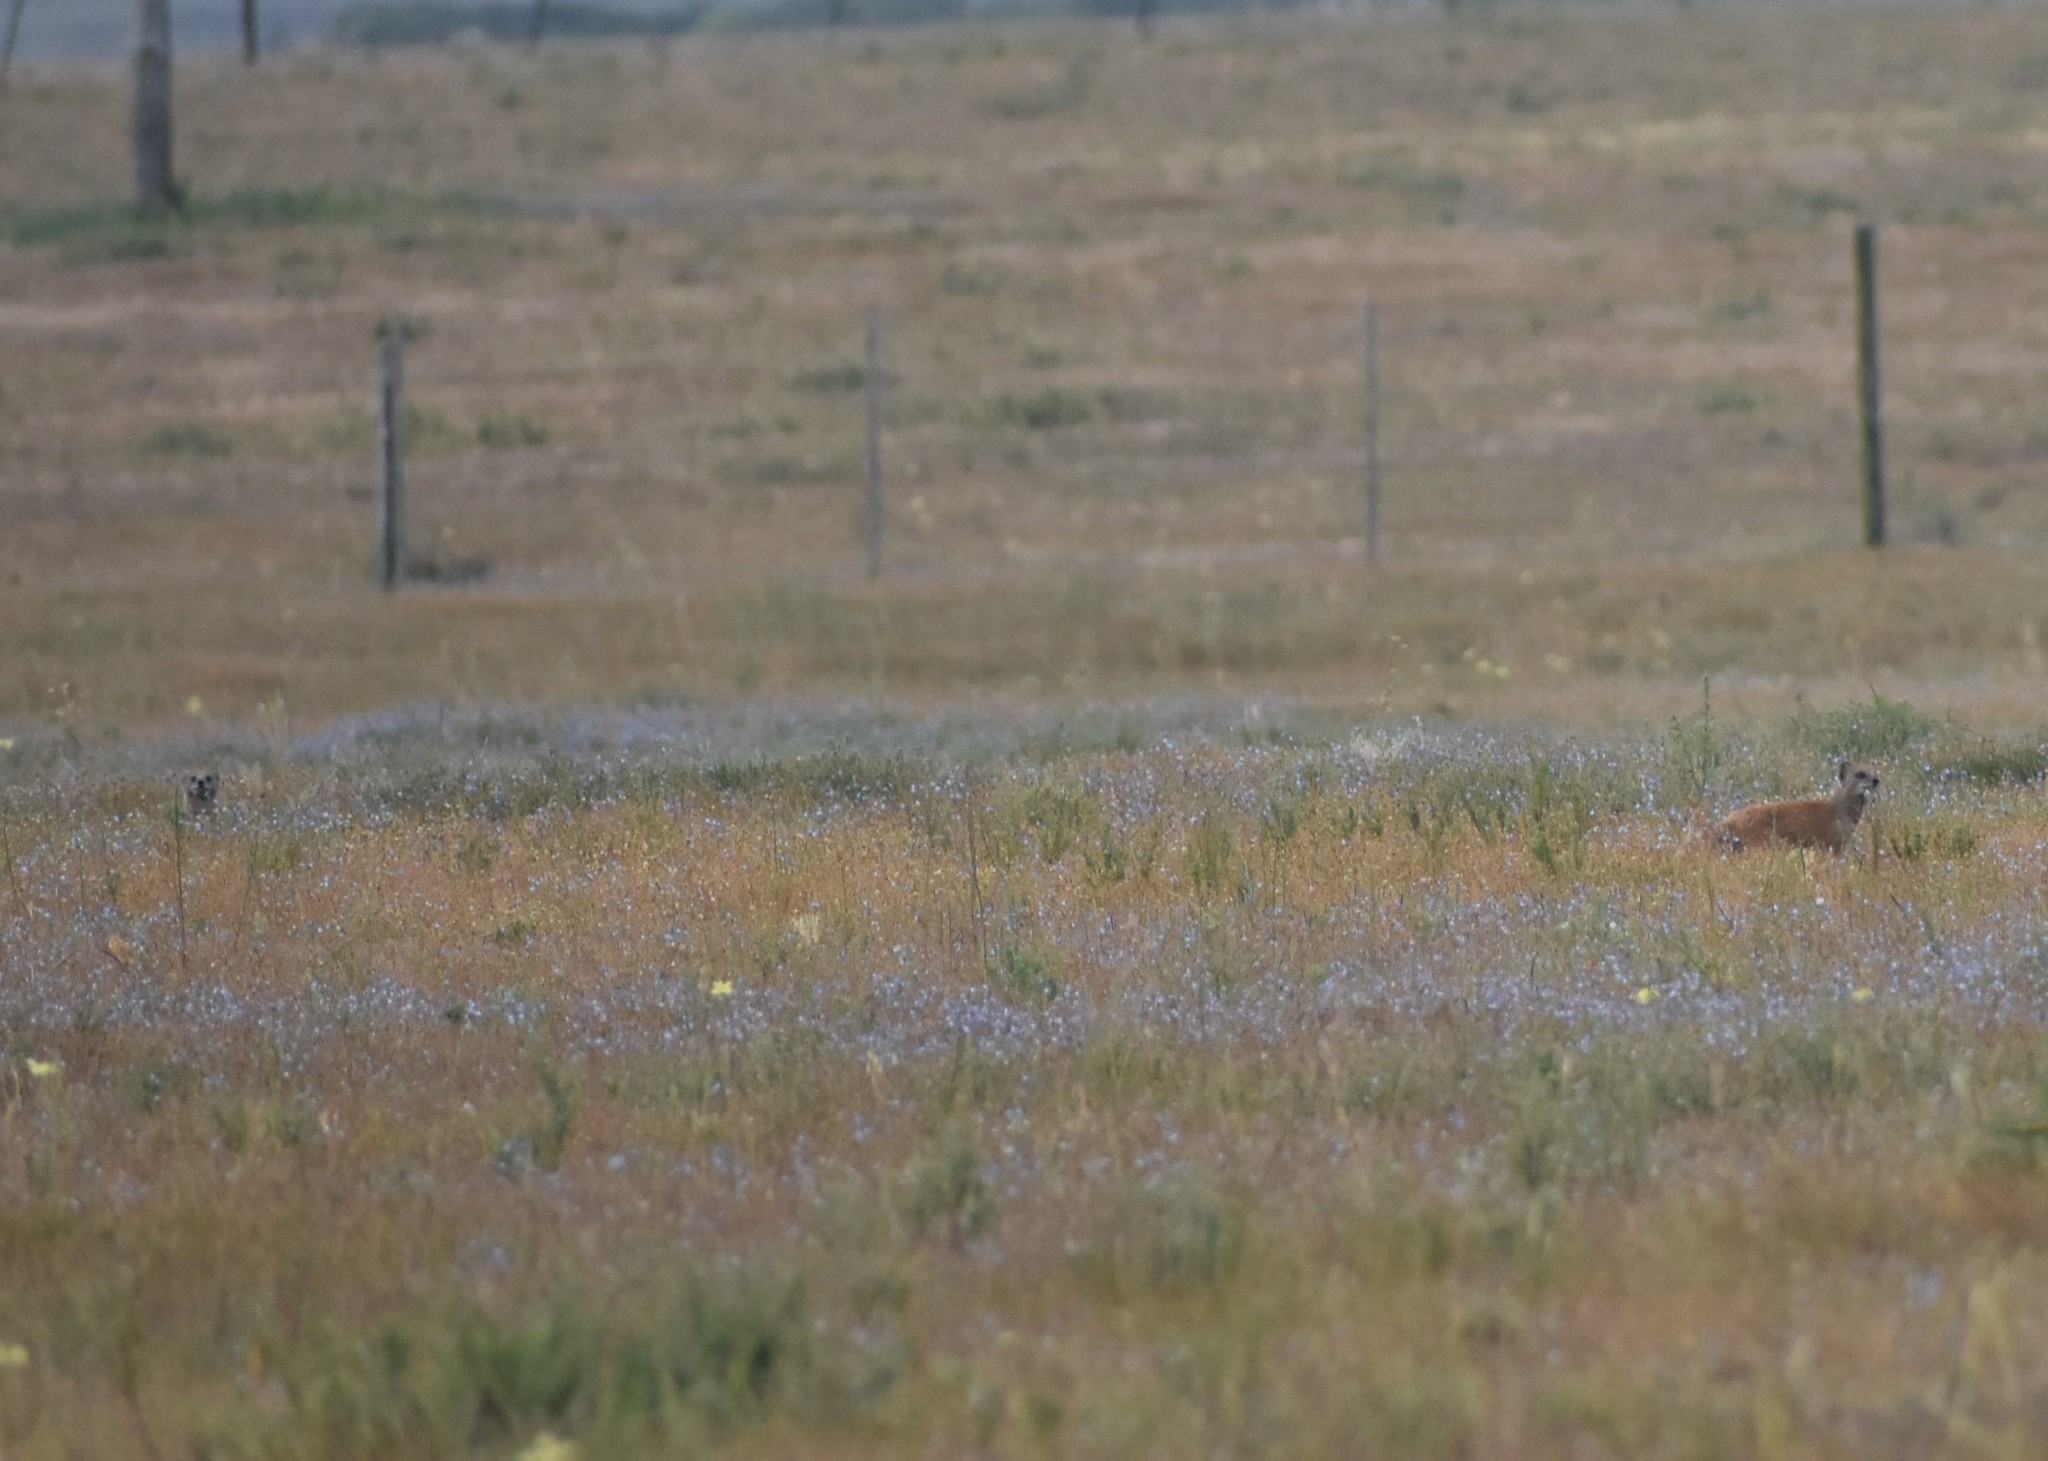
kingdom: Animalia
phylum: Chordata
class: Mammalia
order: Carnivora
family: Herpestidae
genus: Cynictis
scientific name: Cynictis penicillata
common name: Yellow mongoose
